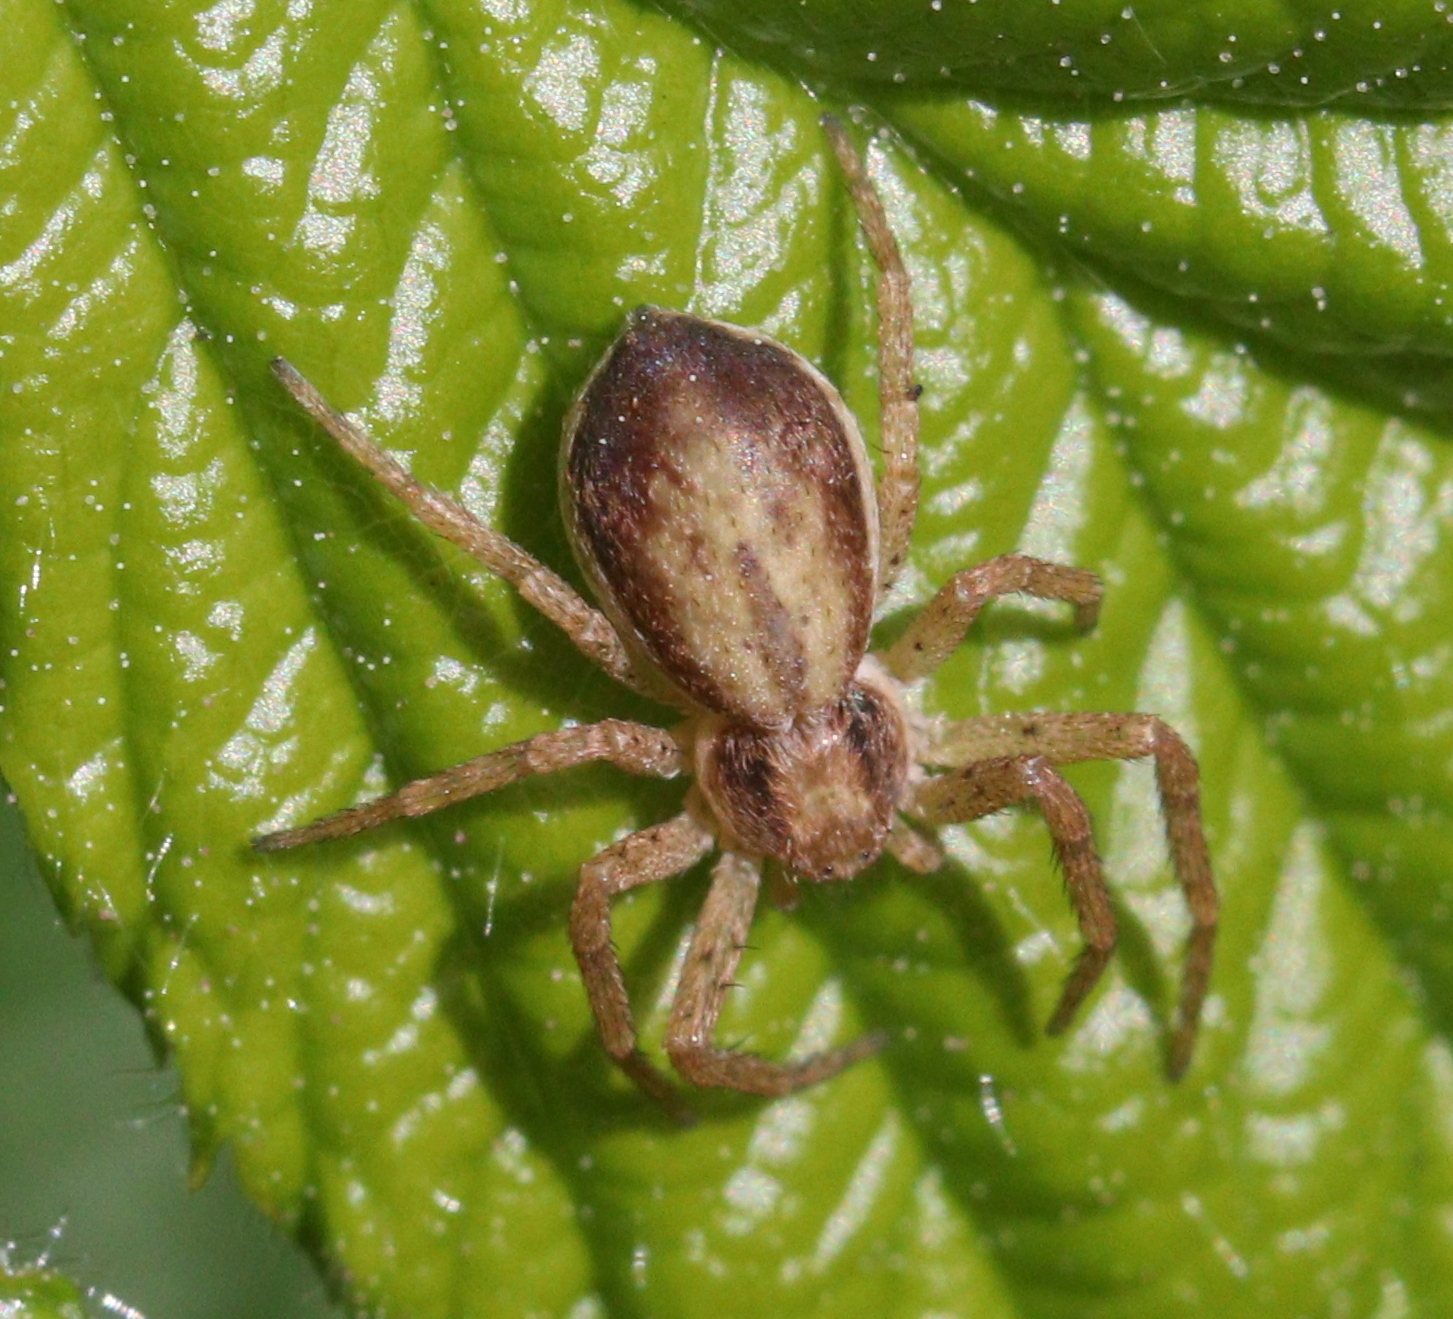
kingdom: Animalia
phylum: Arthropoda
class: Arachnida
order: Araneae
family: Philodromidae
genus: Philodromus
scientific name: Philodromus dispar
